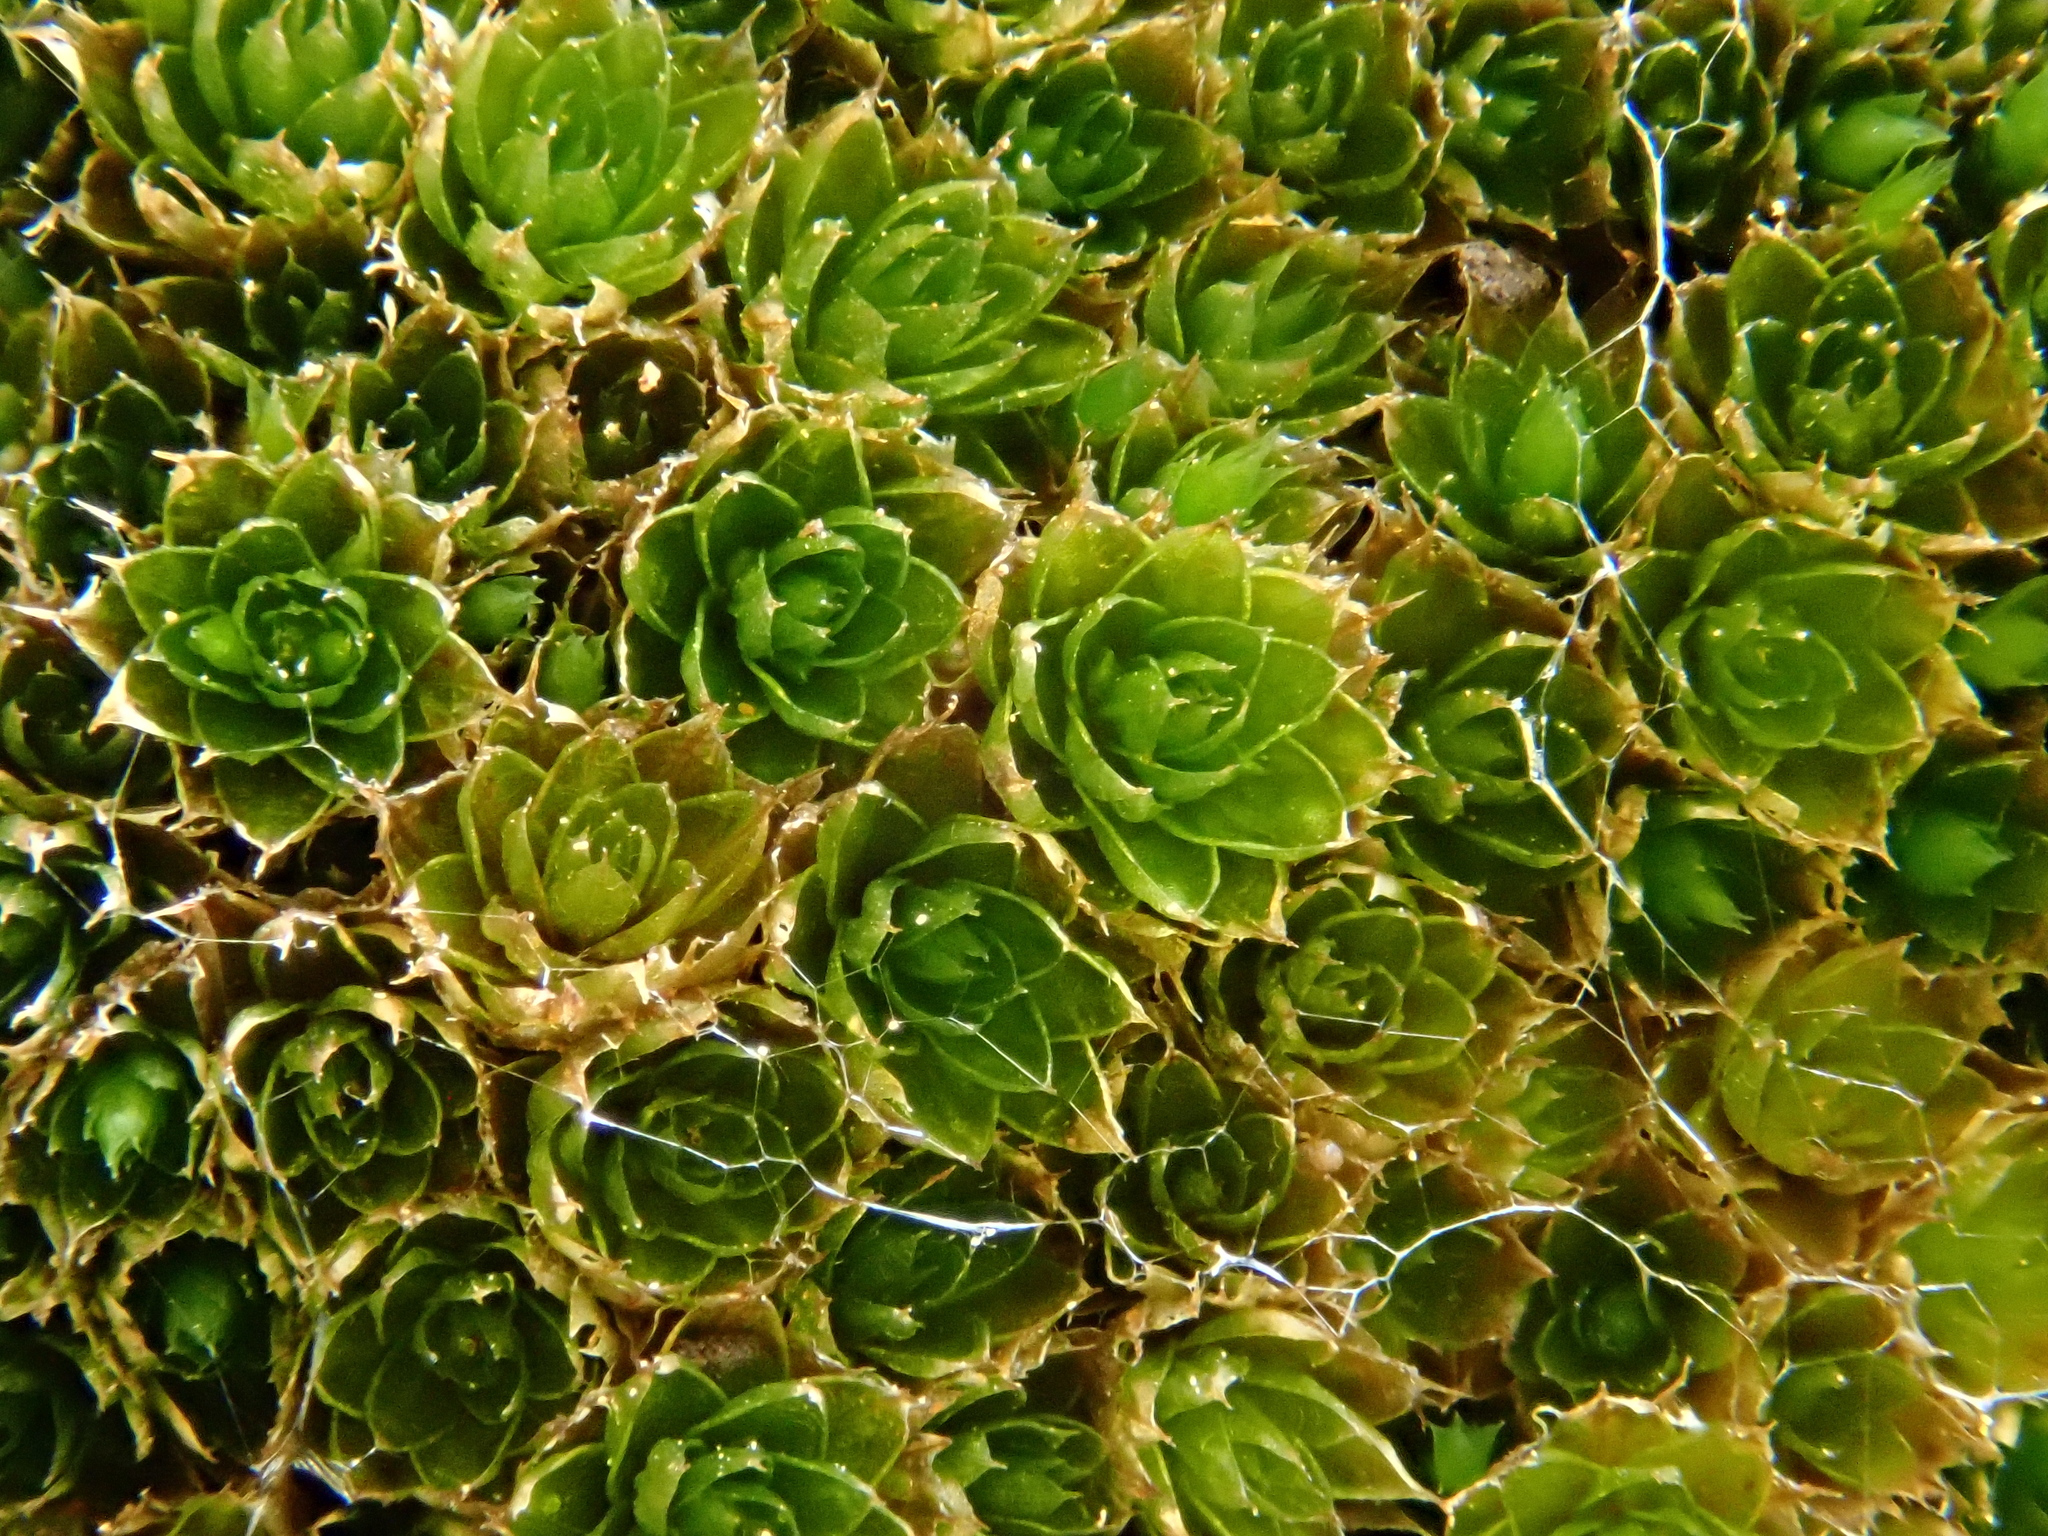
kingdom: Plantae
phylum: Bryophyta
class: Bryopsida
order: Bryales
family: Bryaceae
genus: Rosulabryum
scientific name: Rosulabryum canariense
